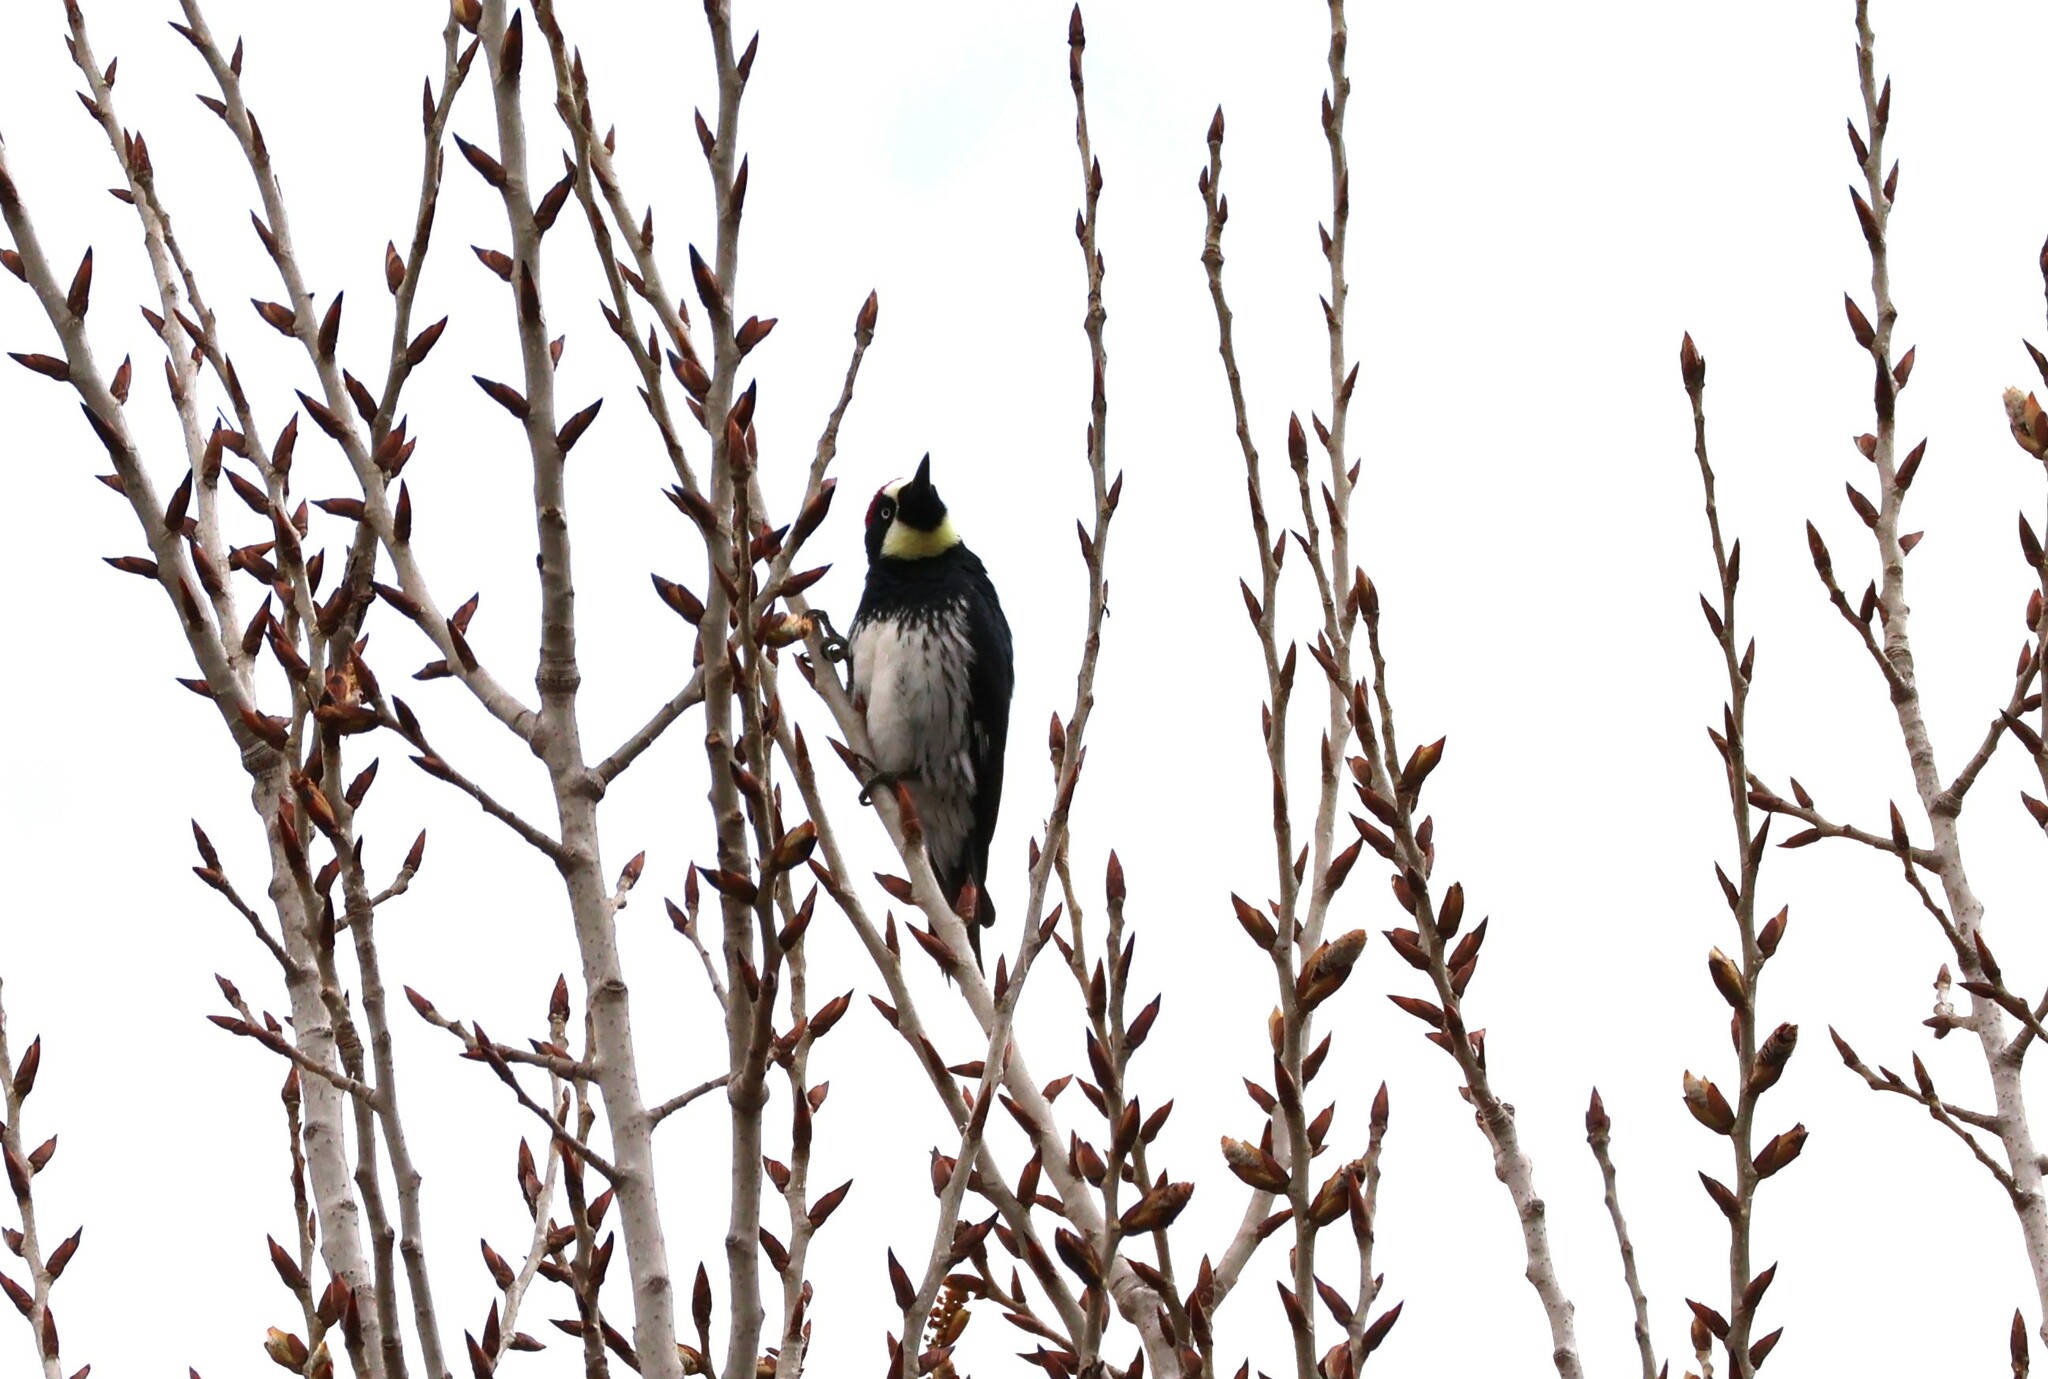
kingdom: Animalia
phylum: Chordata
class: Aves
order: Piciformes
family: Picidae
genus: Melanerpes
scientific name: Melanerpes formicivorus
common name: Acorn woodpecker
